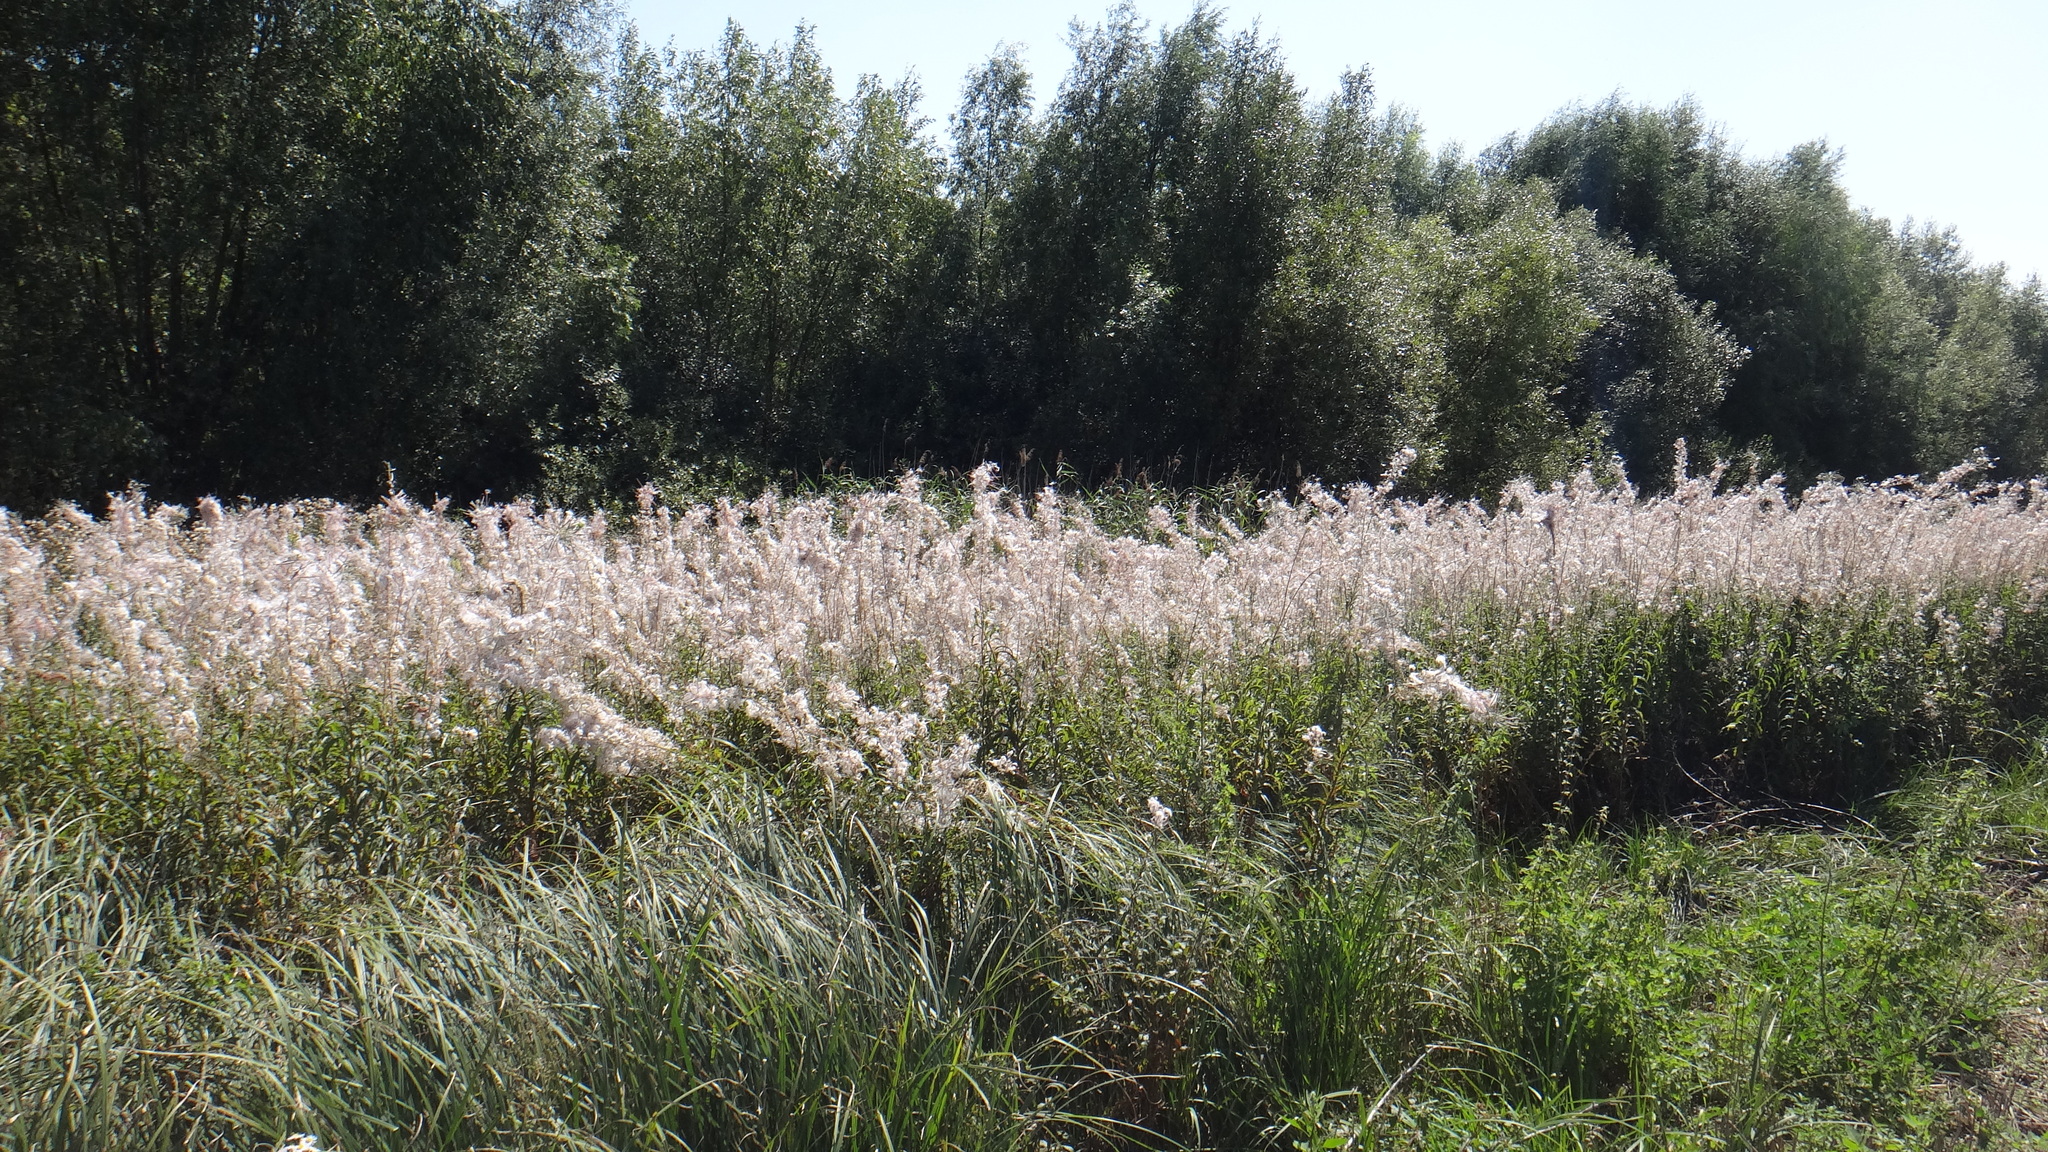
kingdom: Plantae
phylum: Tracheophyta
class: Magnoliopsida
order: Myrtales
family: Onagraceae
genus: Chamaenerion
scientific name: Chamaenerion angustifolium
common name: Fireweed
